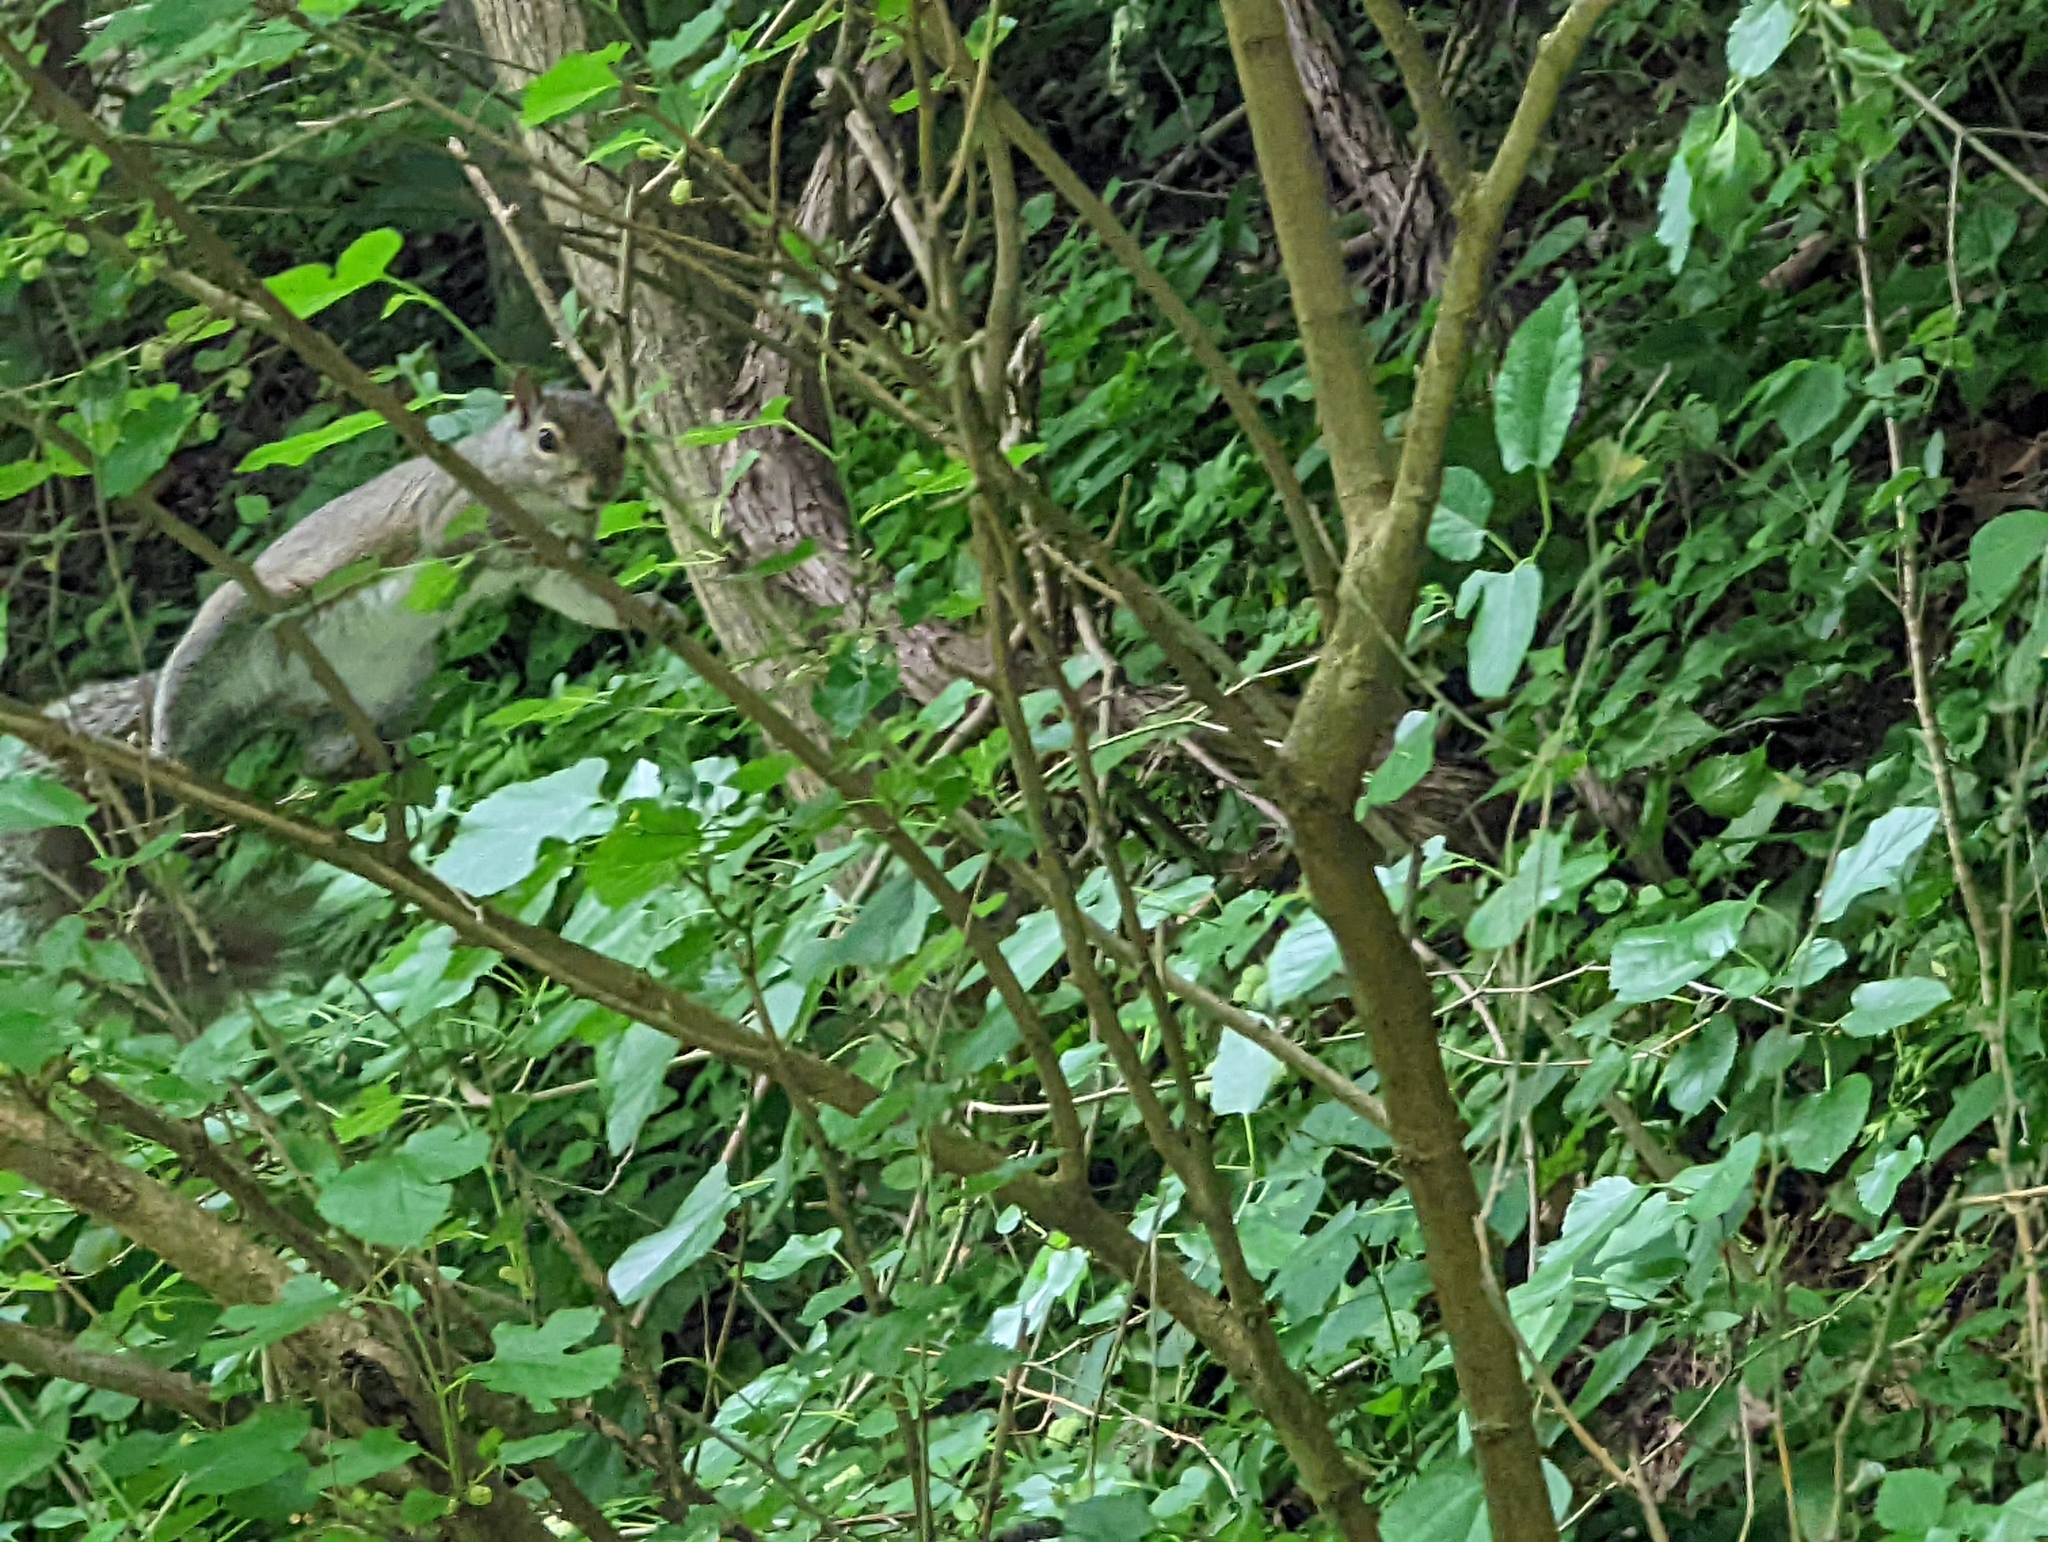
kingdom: Animalia
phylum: Chordata
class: Mammalia
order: Rodentia
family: Sciuridae
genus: Sciurus
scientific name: Sciurus carolinensis
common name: Eastern gray squirrel
